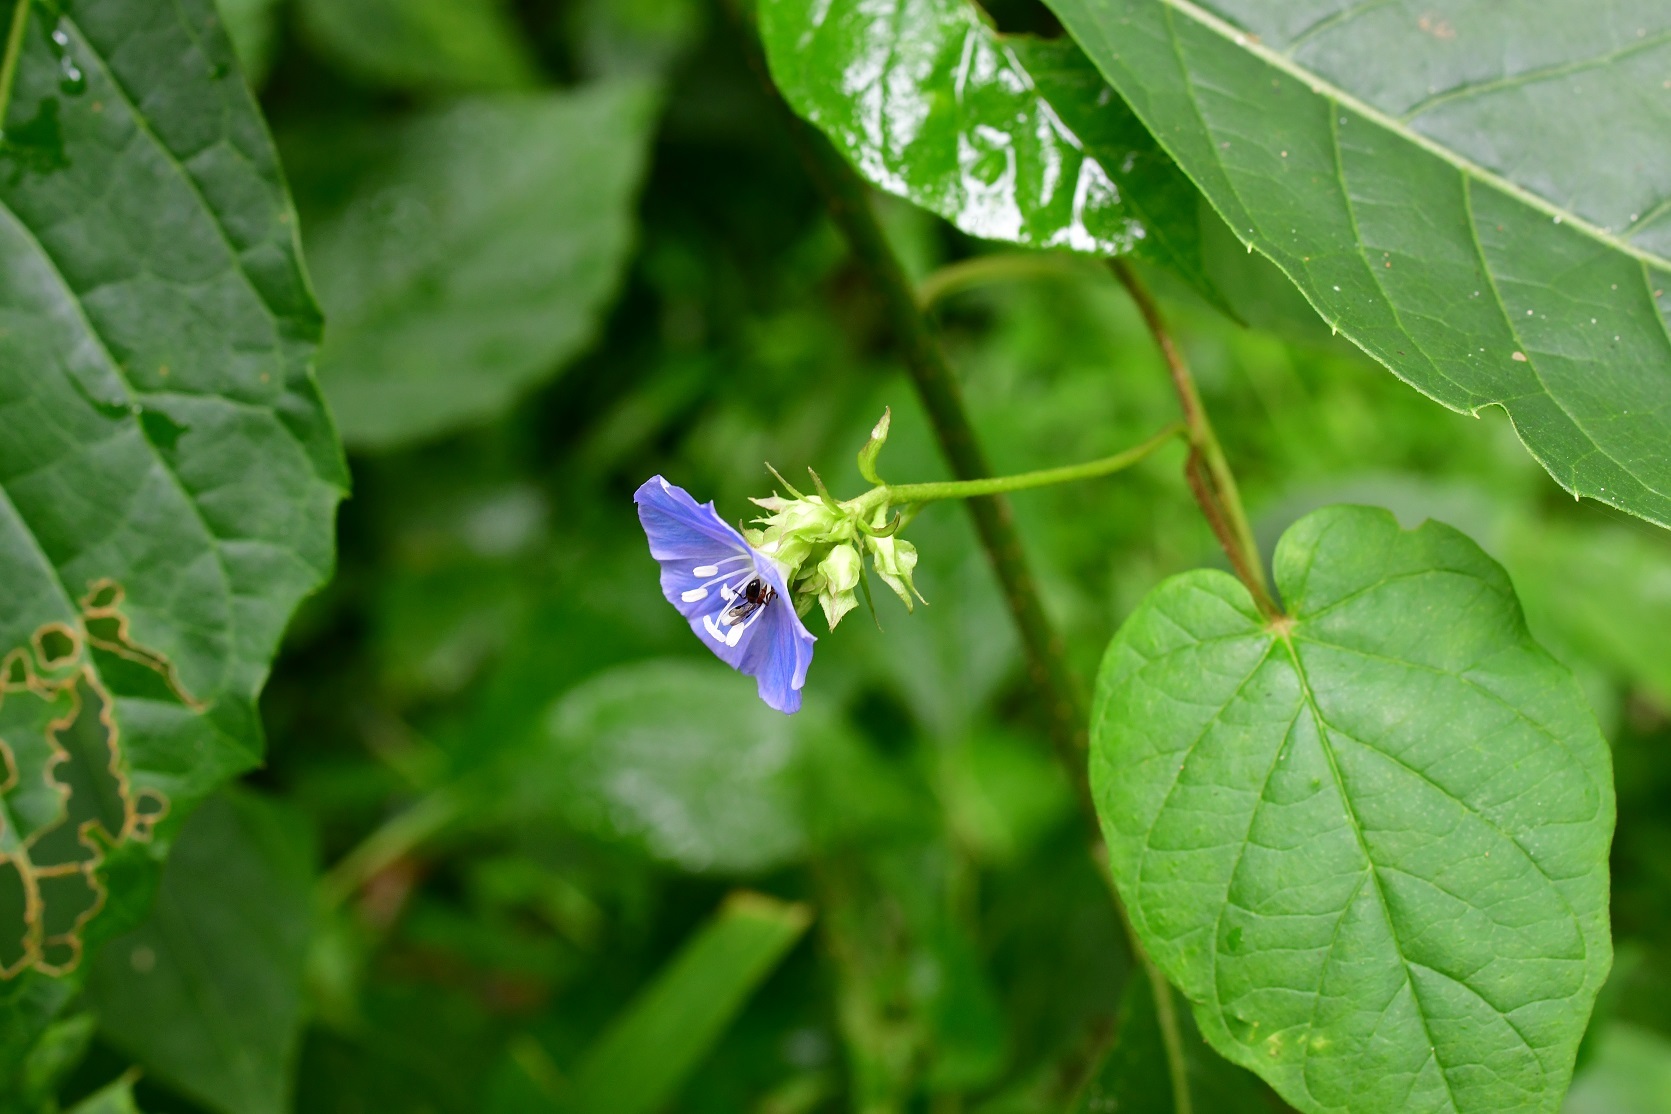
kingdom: Plantae
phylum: Tracheophyta
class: Magnoliopsida
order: Solanales
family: Convolvulaceae
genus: Jacquemontia
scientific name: Jacquemontia pentanthos
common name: Skyblue clustervine
